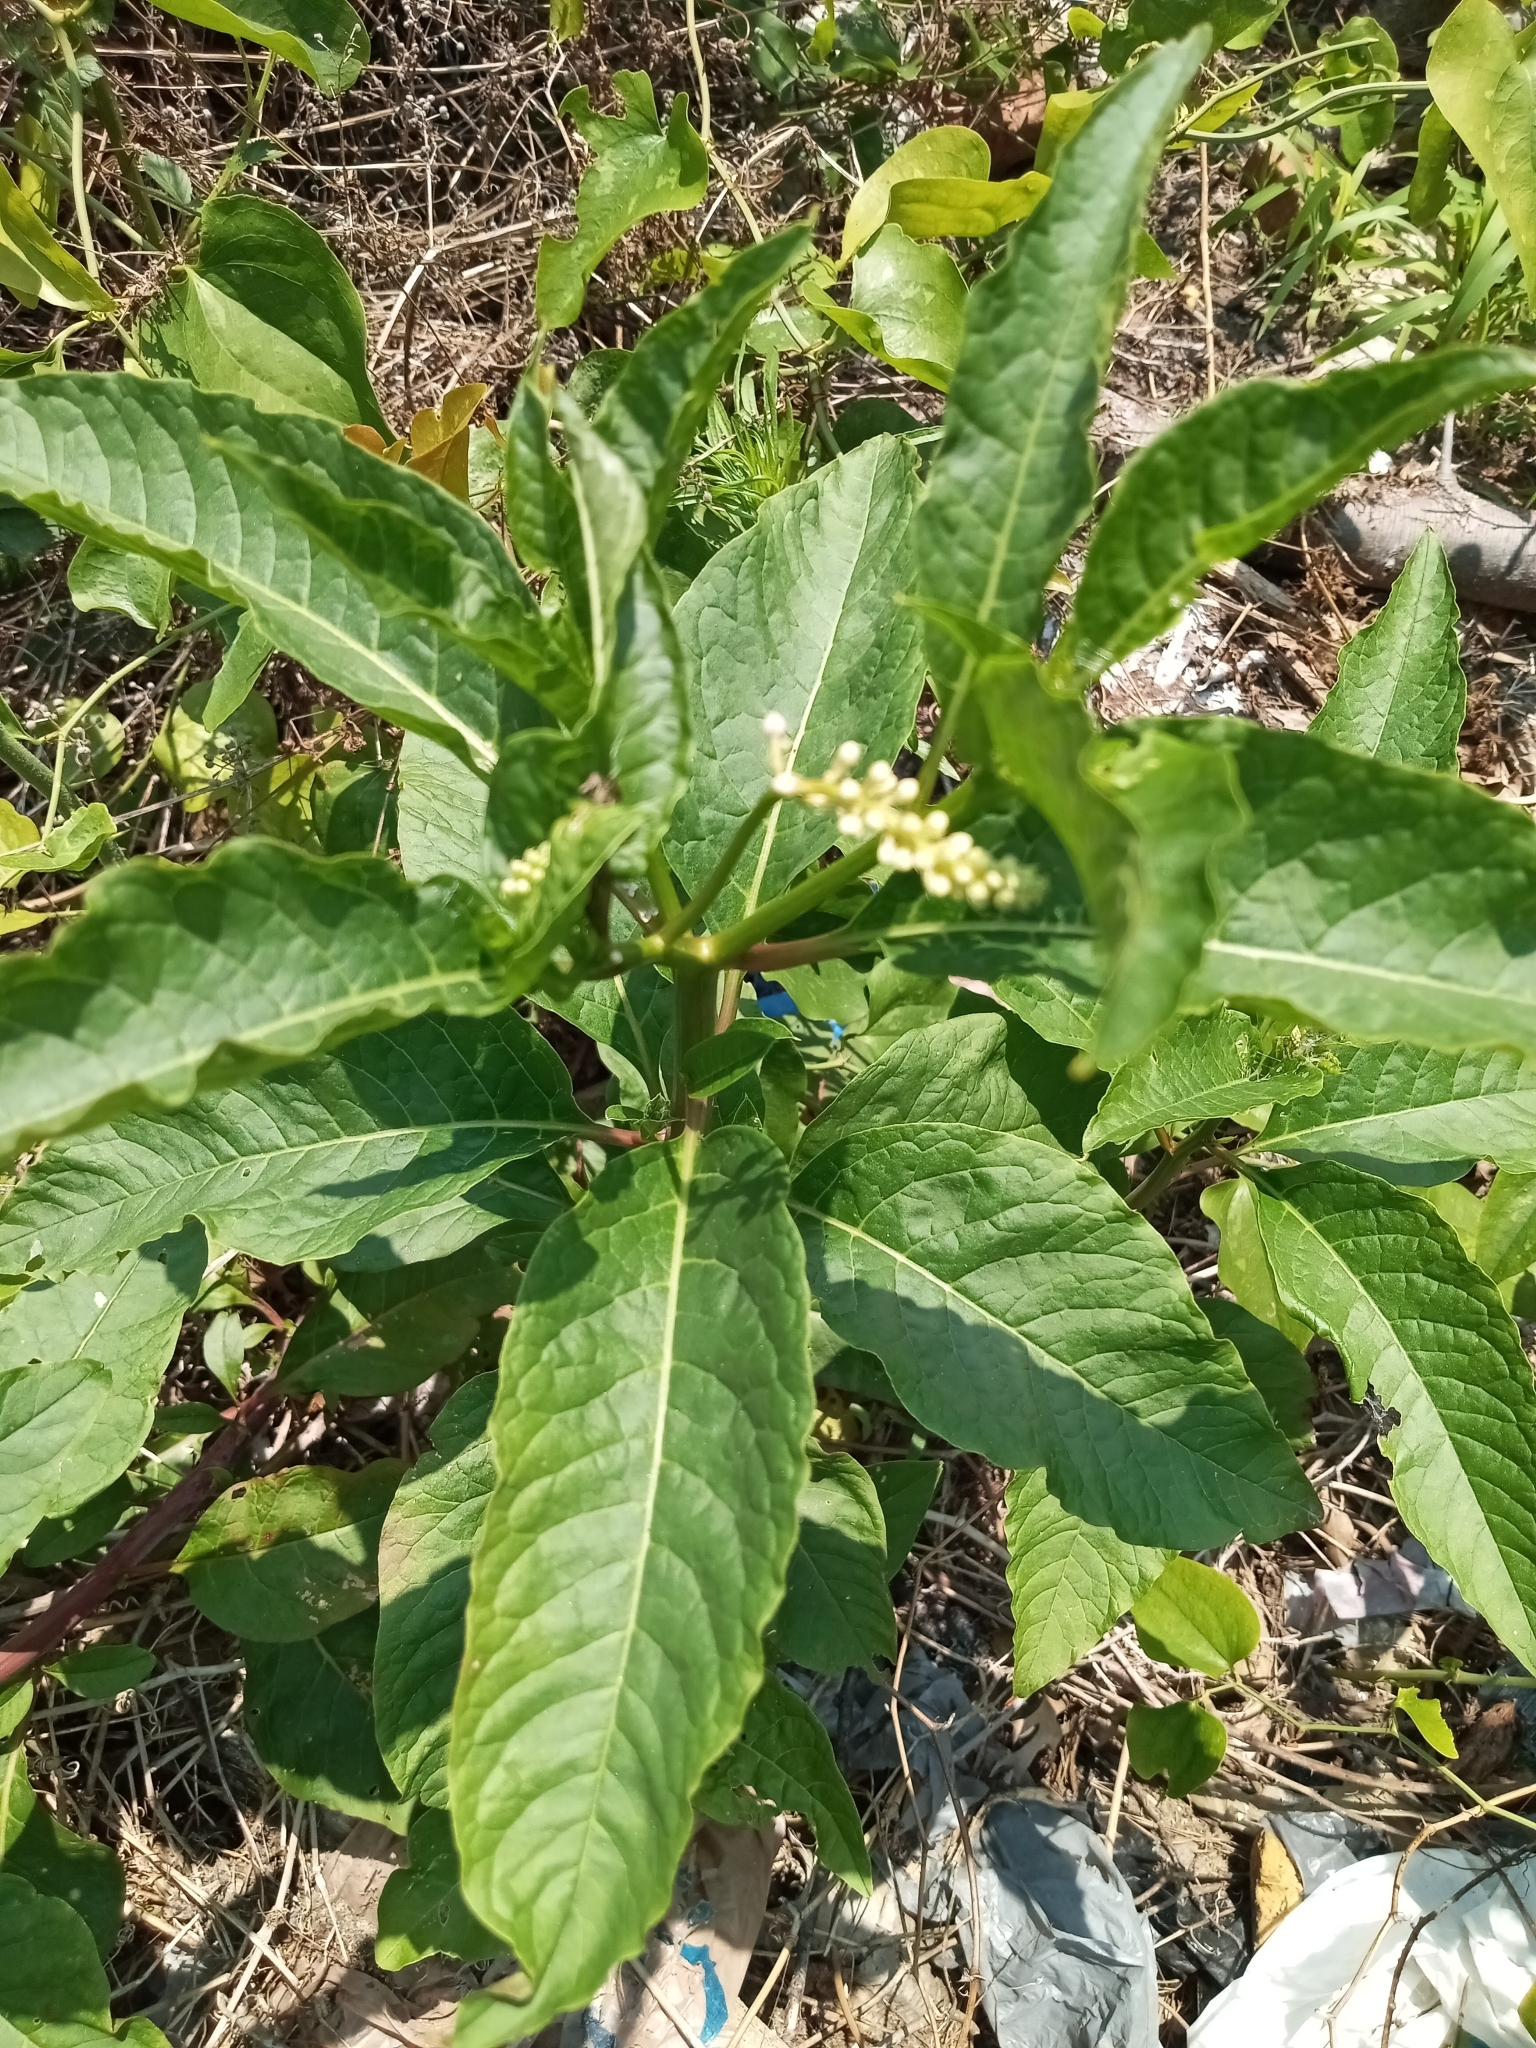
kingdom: Plantae
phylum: Tracheophyta
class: Magnoliopsida
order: Caryophyllales
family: Phytolaccaceae
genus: Phytolacca
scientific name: Phytolacca americana
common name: American pokeweed
